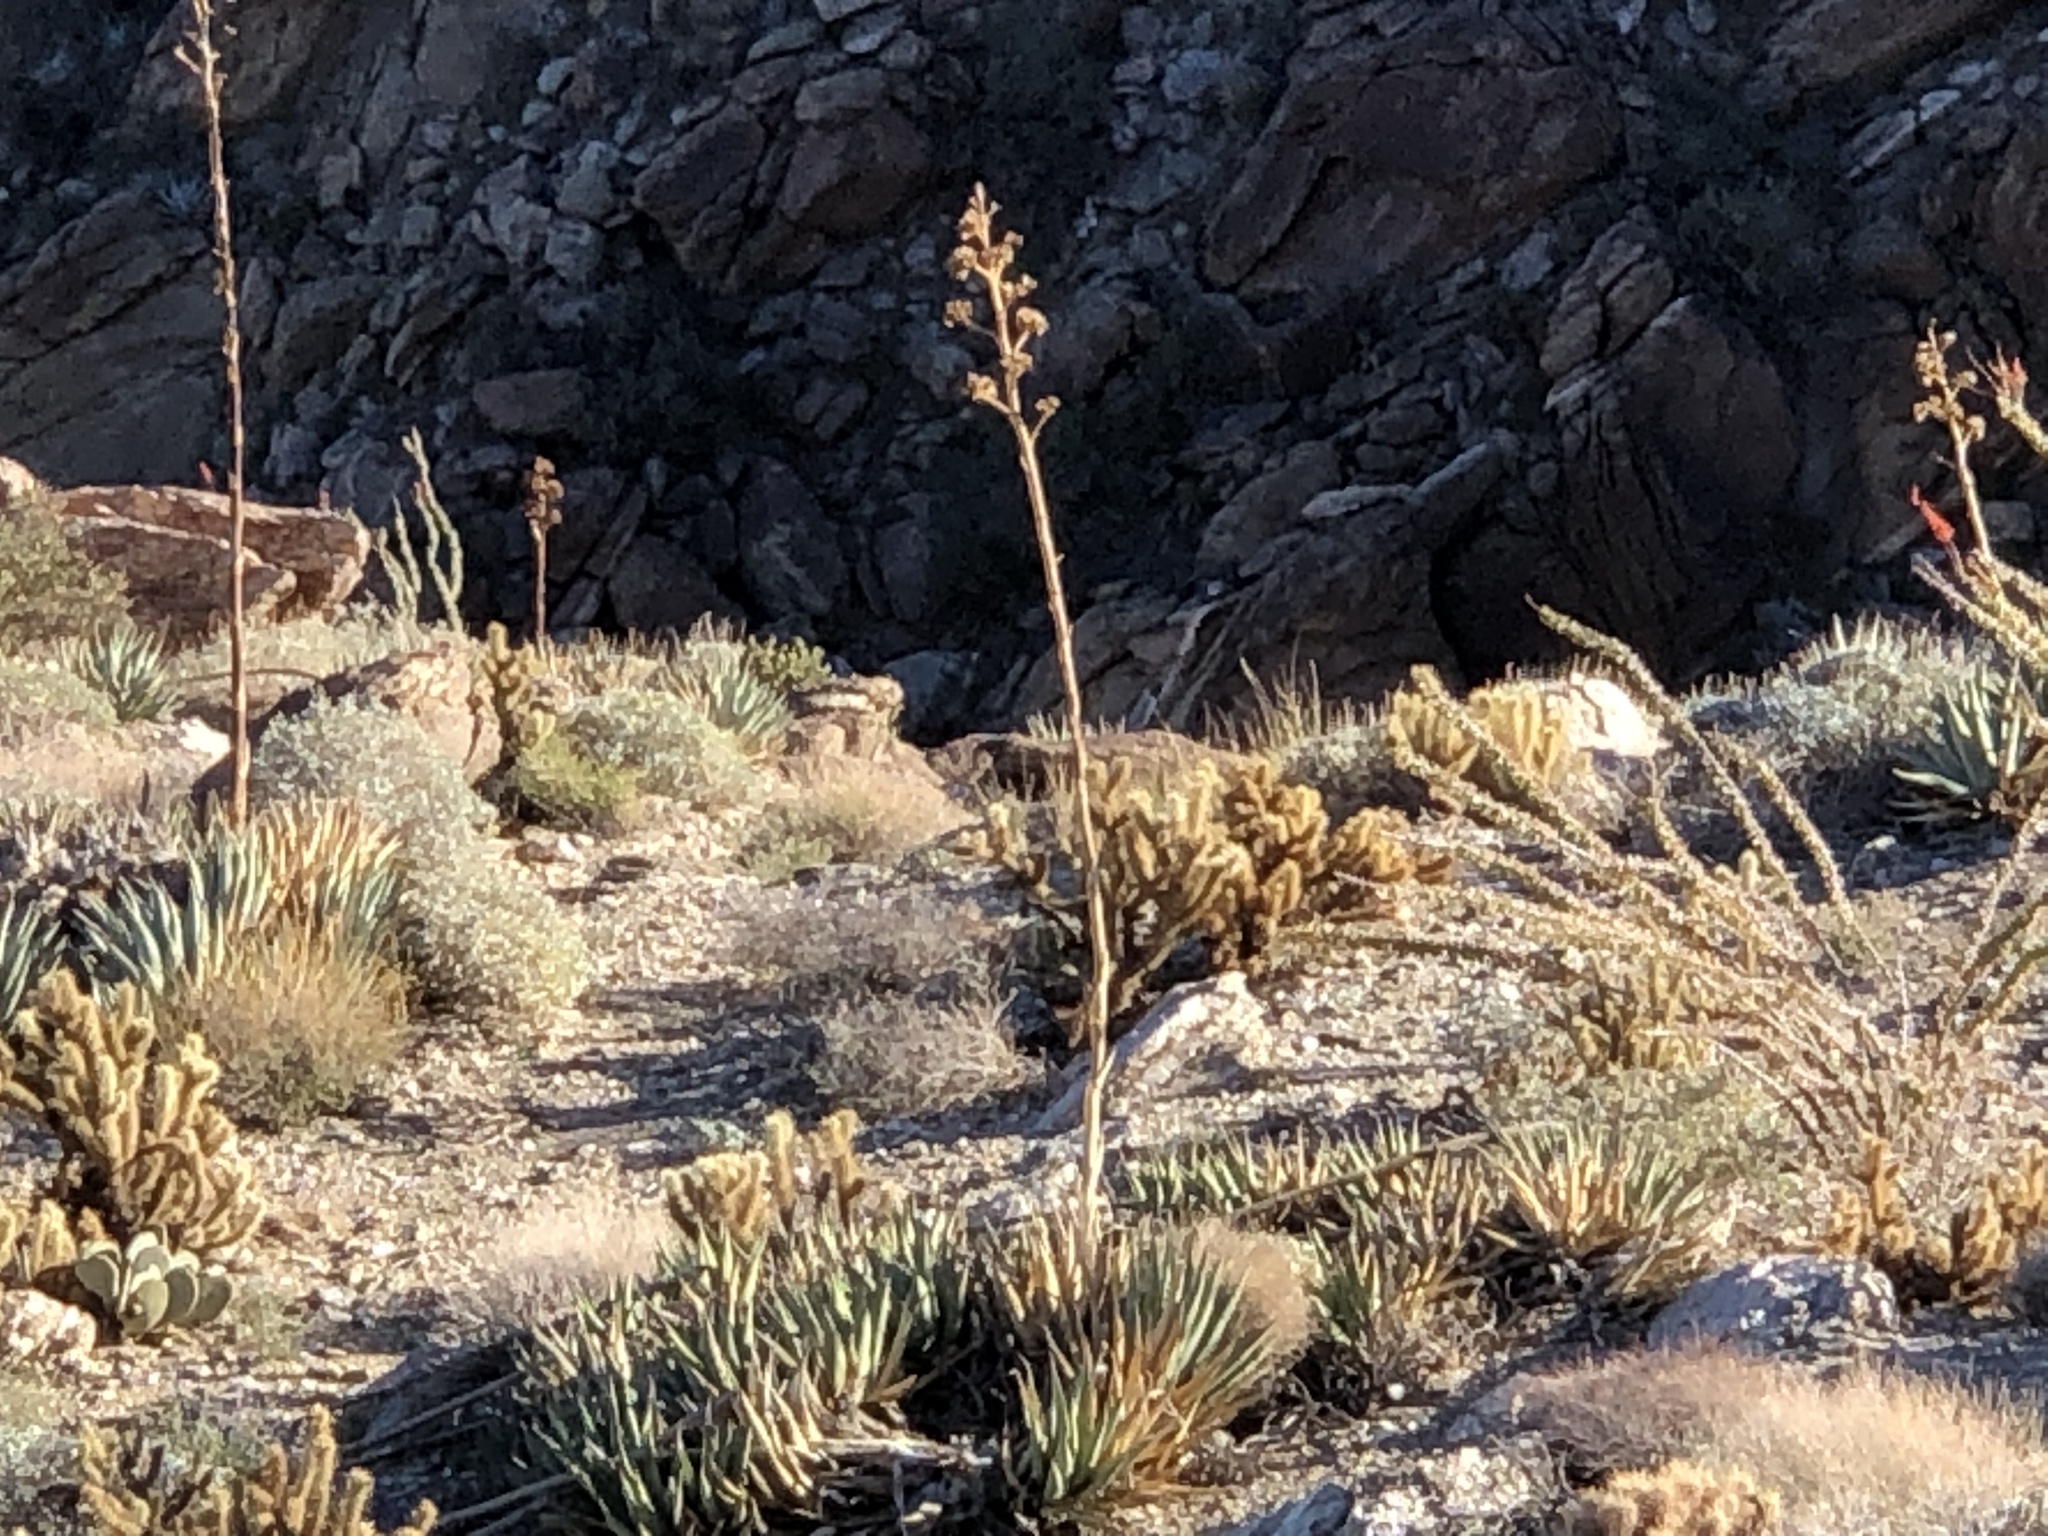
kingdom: Plantae
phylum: Tracheophyta
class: Liliopsida
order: Asparagales
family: Asparagaceae
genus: Agave
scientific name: Agave deserti
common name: Desert agave
